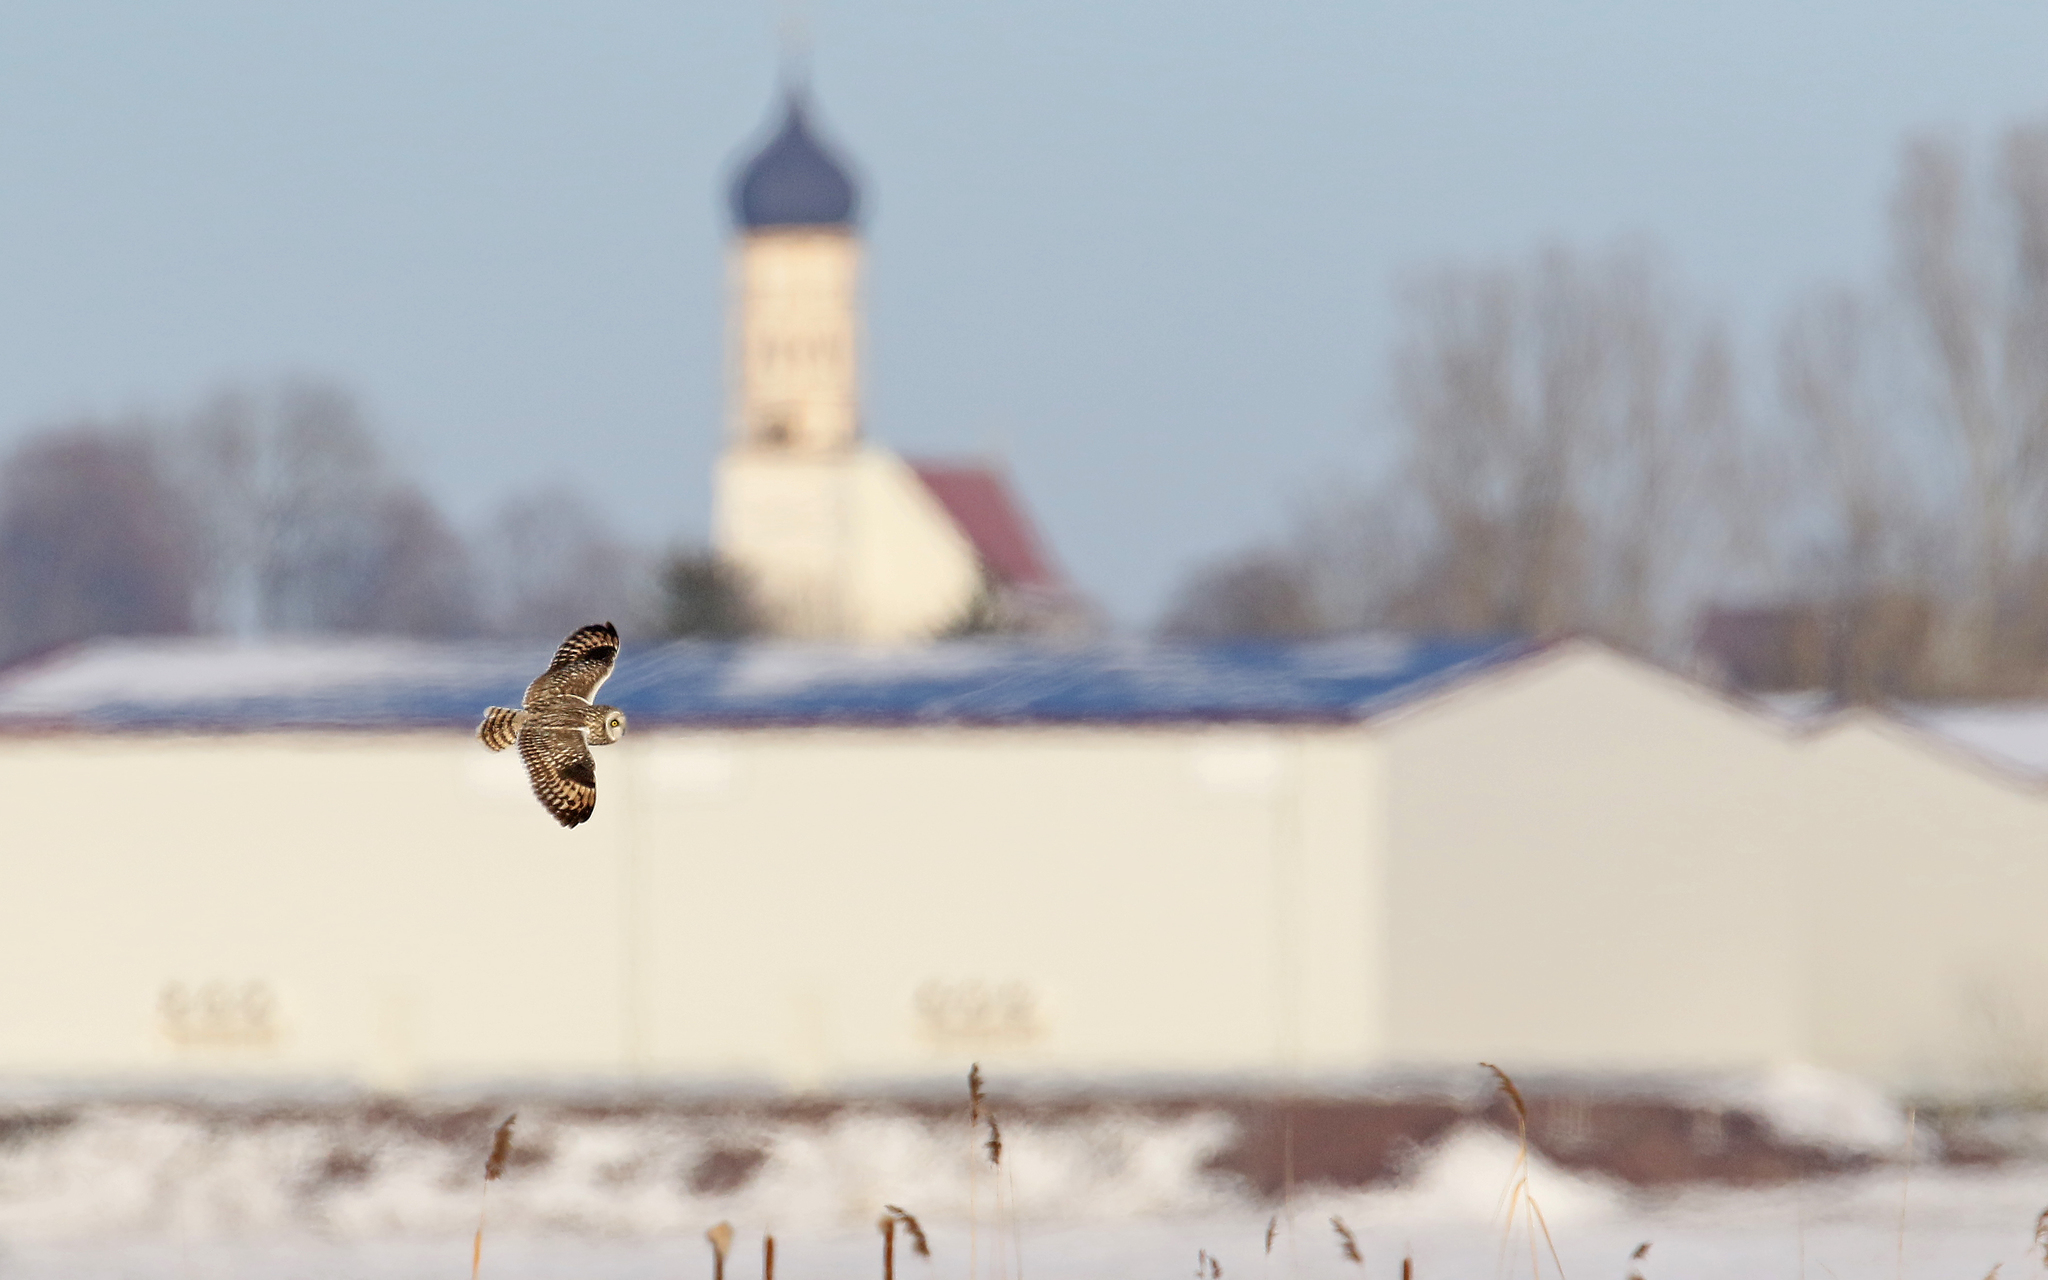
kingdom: Animalia
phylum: Chordata
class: Aves
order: Strigiformes
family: Strigidae
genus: Asio
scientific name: Asio flammeus
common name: Short-eared owl
